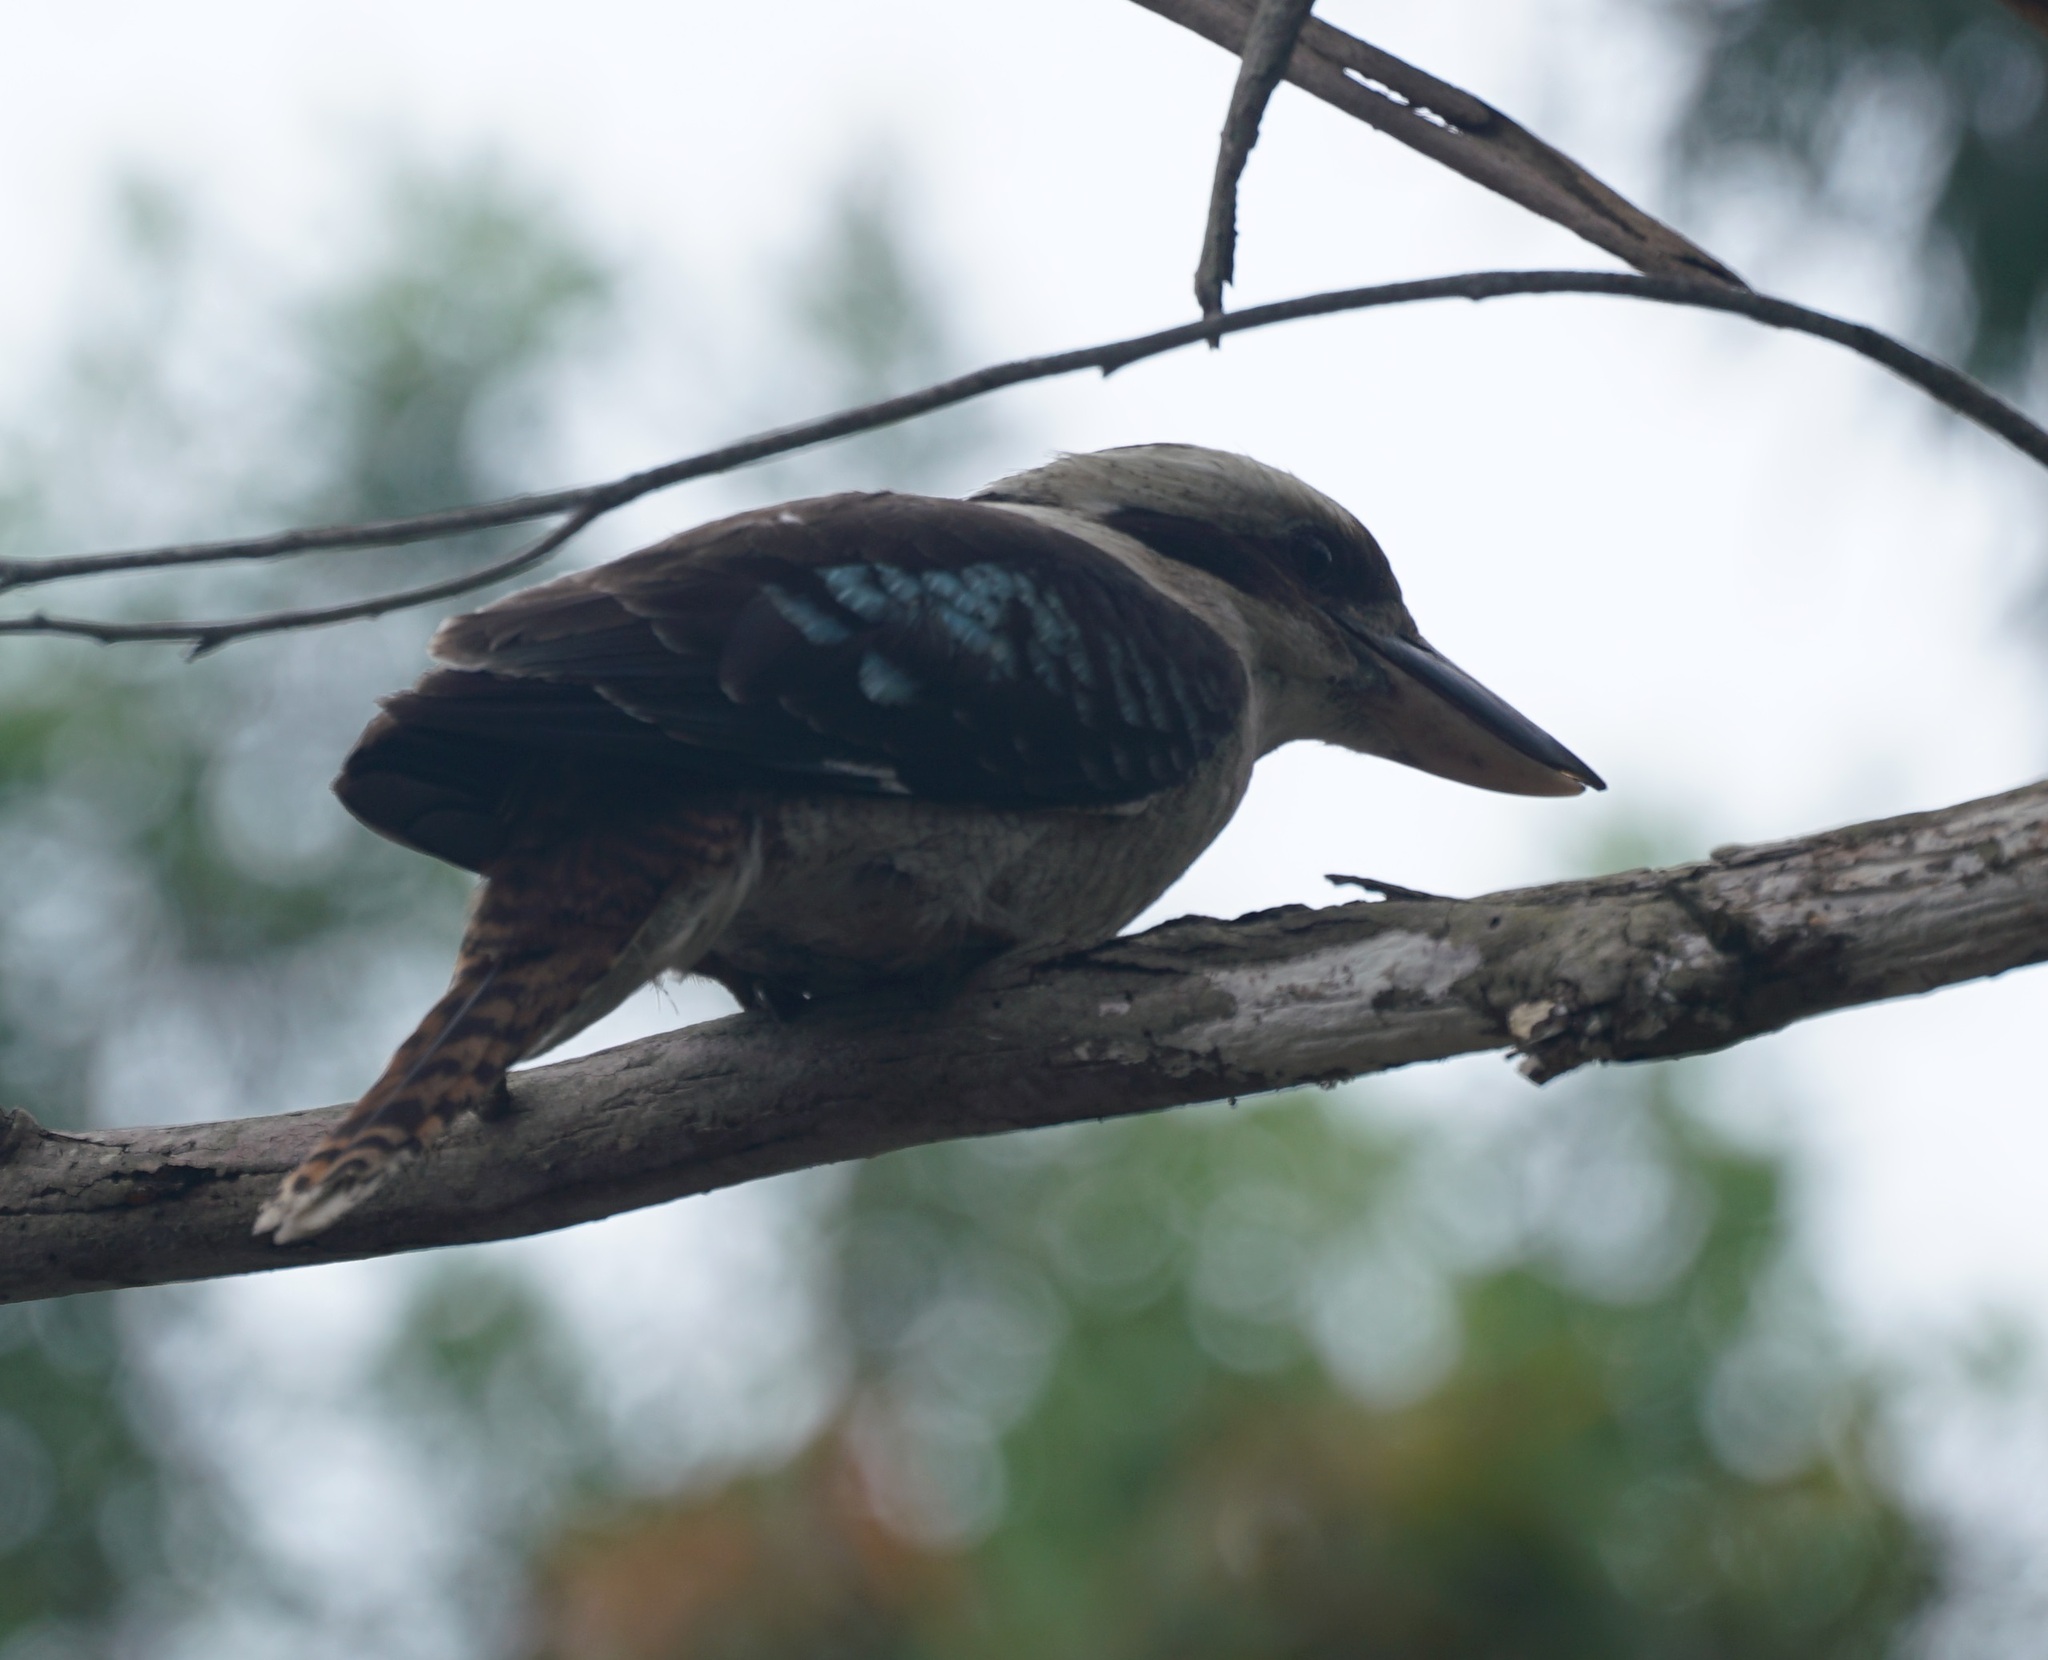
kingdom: Animalia
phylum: Chordata
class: Aves
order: Coraciiformes
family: Alcedinidae
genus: Dacelo
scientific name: Dacelo novaeguineae
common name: Laughing kookaburra
